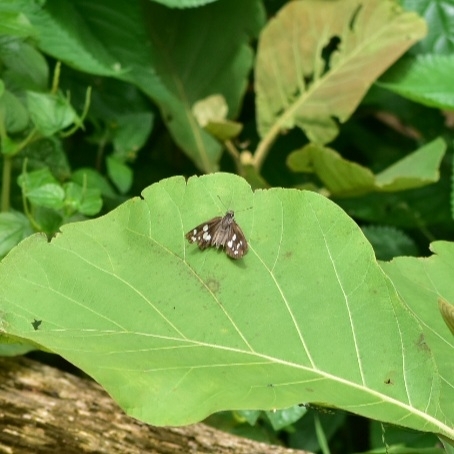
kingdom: Animalia
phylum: Arthropoda
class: Insecta
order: Lepidoptera
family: Hesperiidae
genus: Udaspes
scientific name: Udaspes folus
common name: Grass demon
